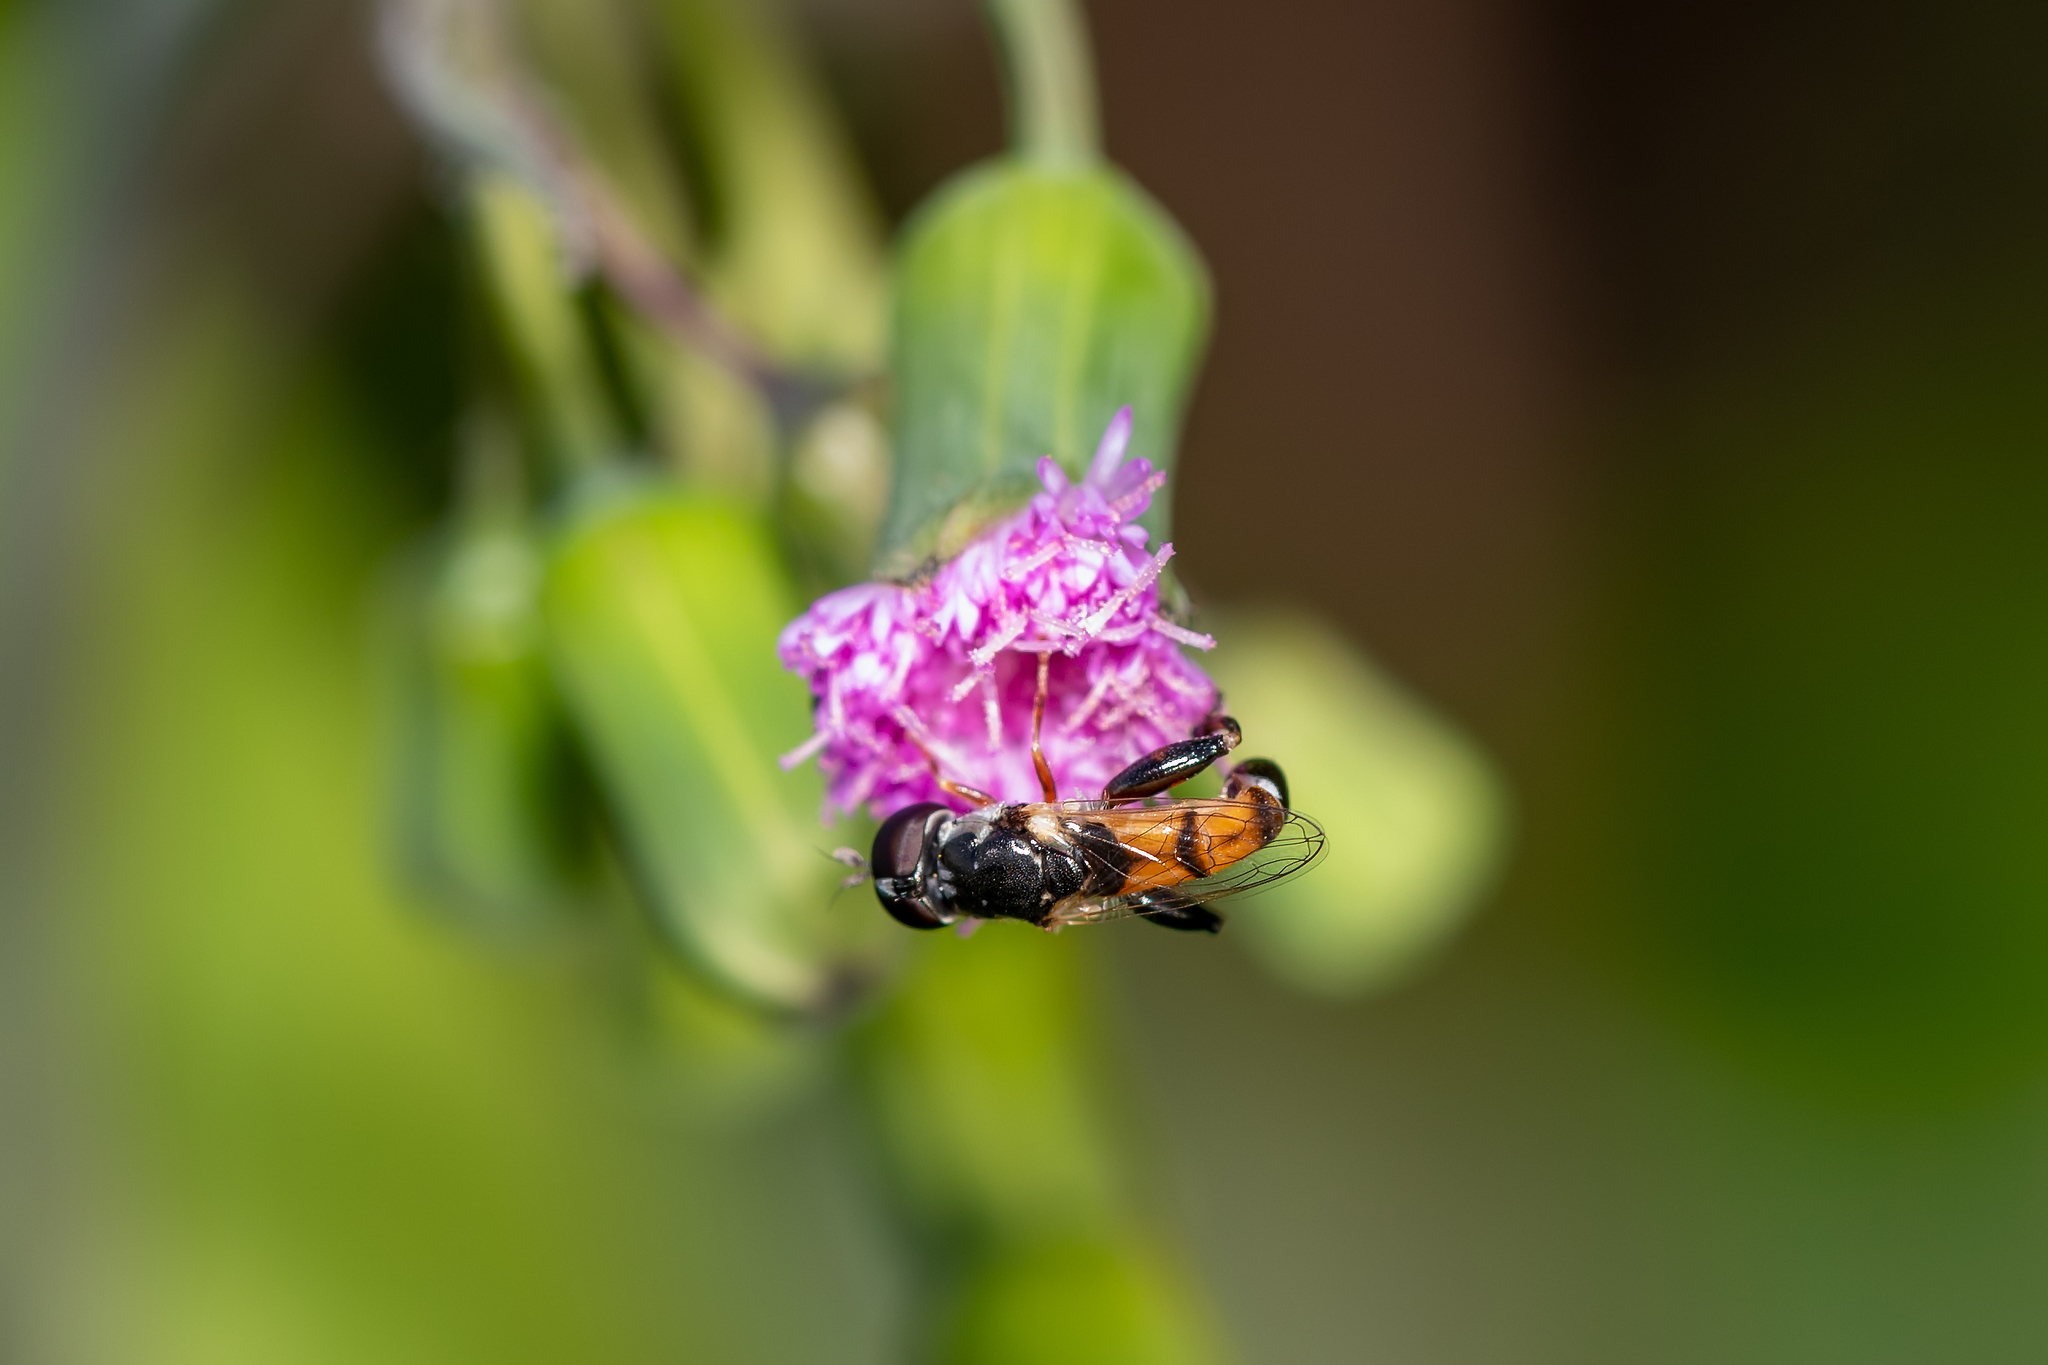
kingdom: Animalia
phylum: Arthropoda
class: Insecta
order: Diptera
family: Syrphidae
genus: Syritta
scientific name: Syritta flaviventris
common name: Syrphid fly
